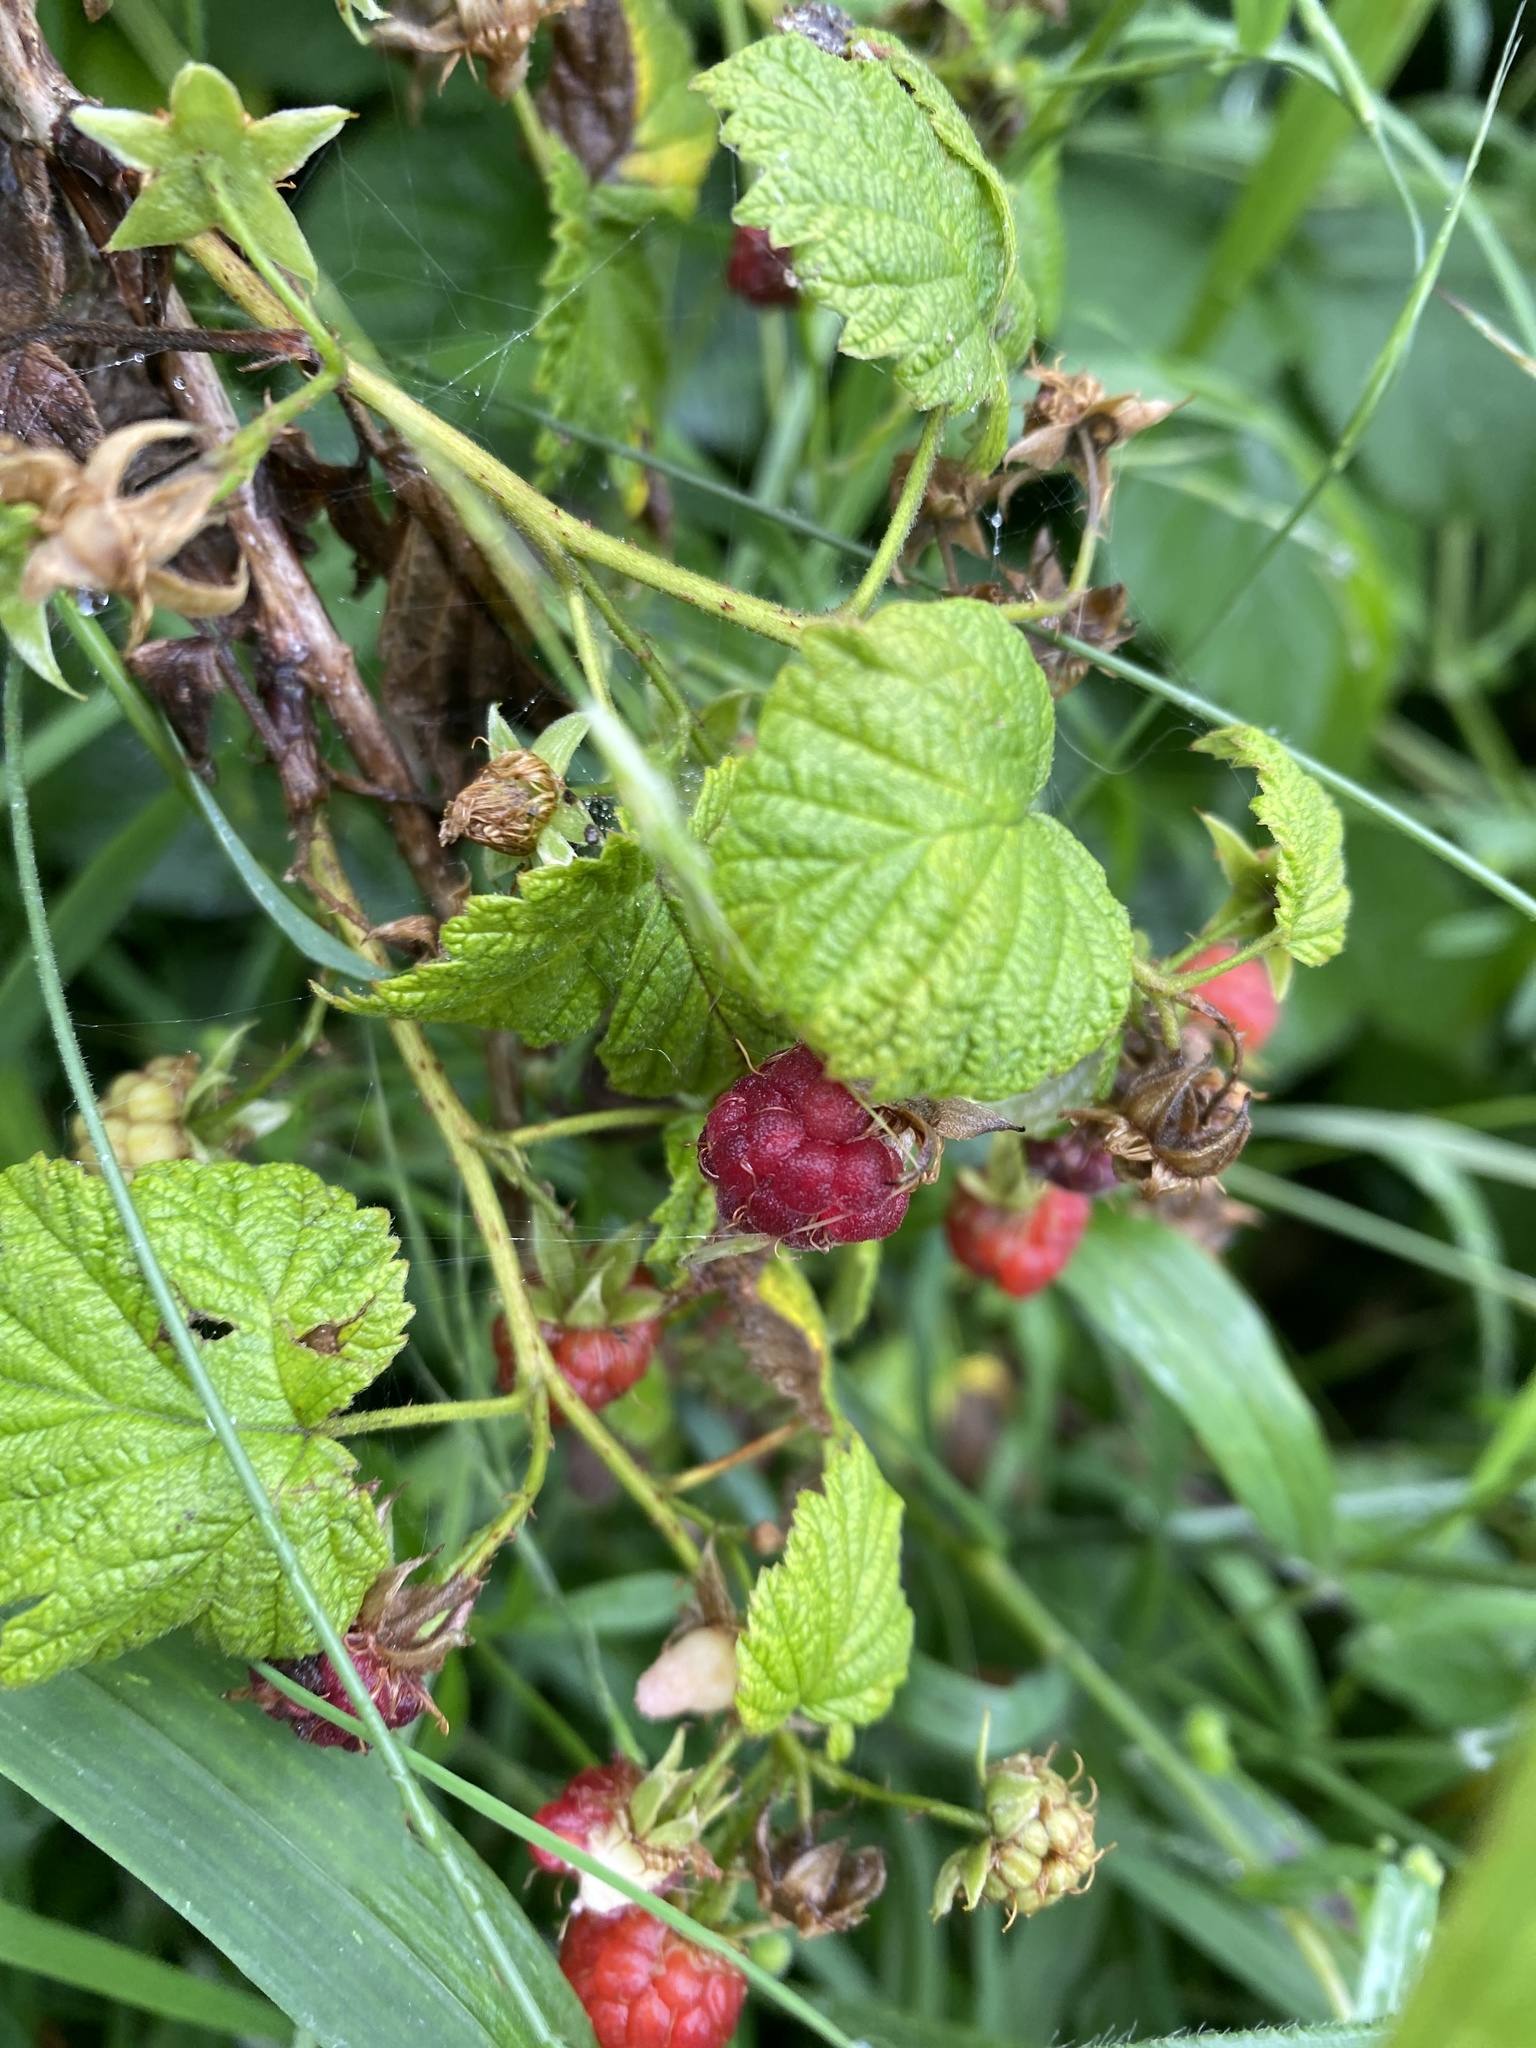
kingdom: Plantae
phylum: Tracheophyta
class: Magnoliopsida
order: Rosales
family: Rosaceae
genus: Rubus
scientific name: Rubus idaeus
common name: Raspberry
